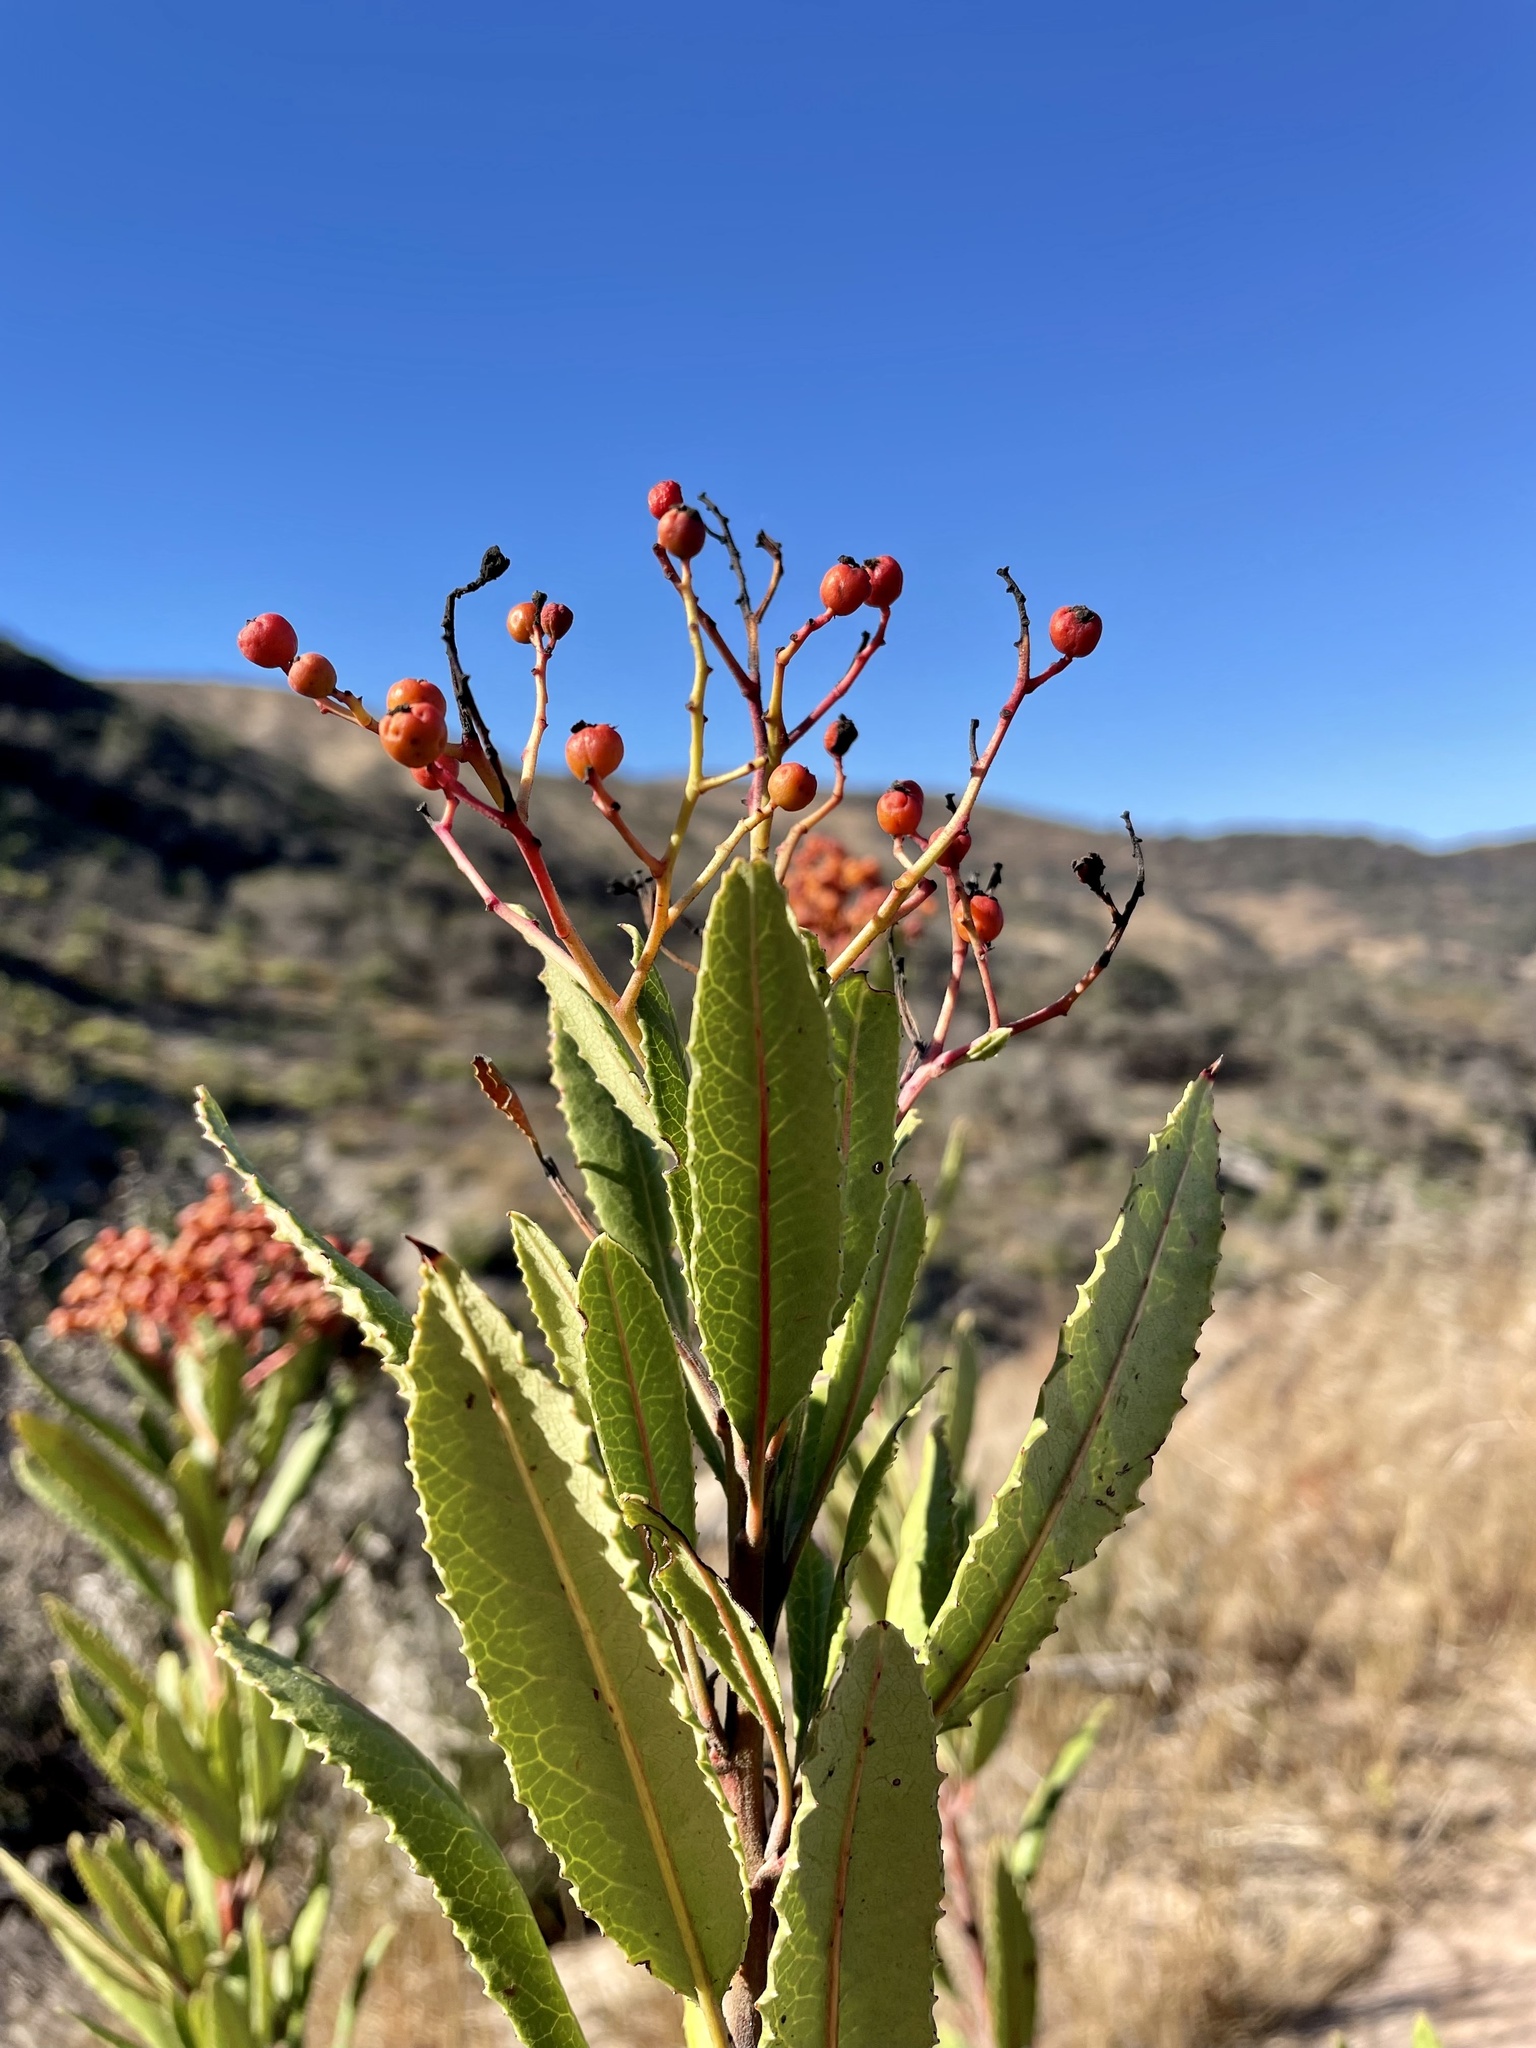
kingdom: Plantae
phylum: Tracheophyta
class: Magnoliopsida
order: Rosales
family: Rosaceae
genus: Heteromeles
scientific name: Heteromeles arbutifolia
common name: California-holly
